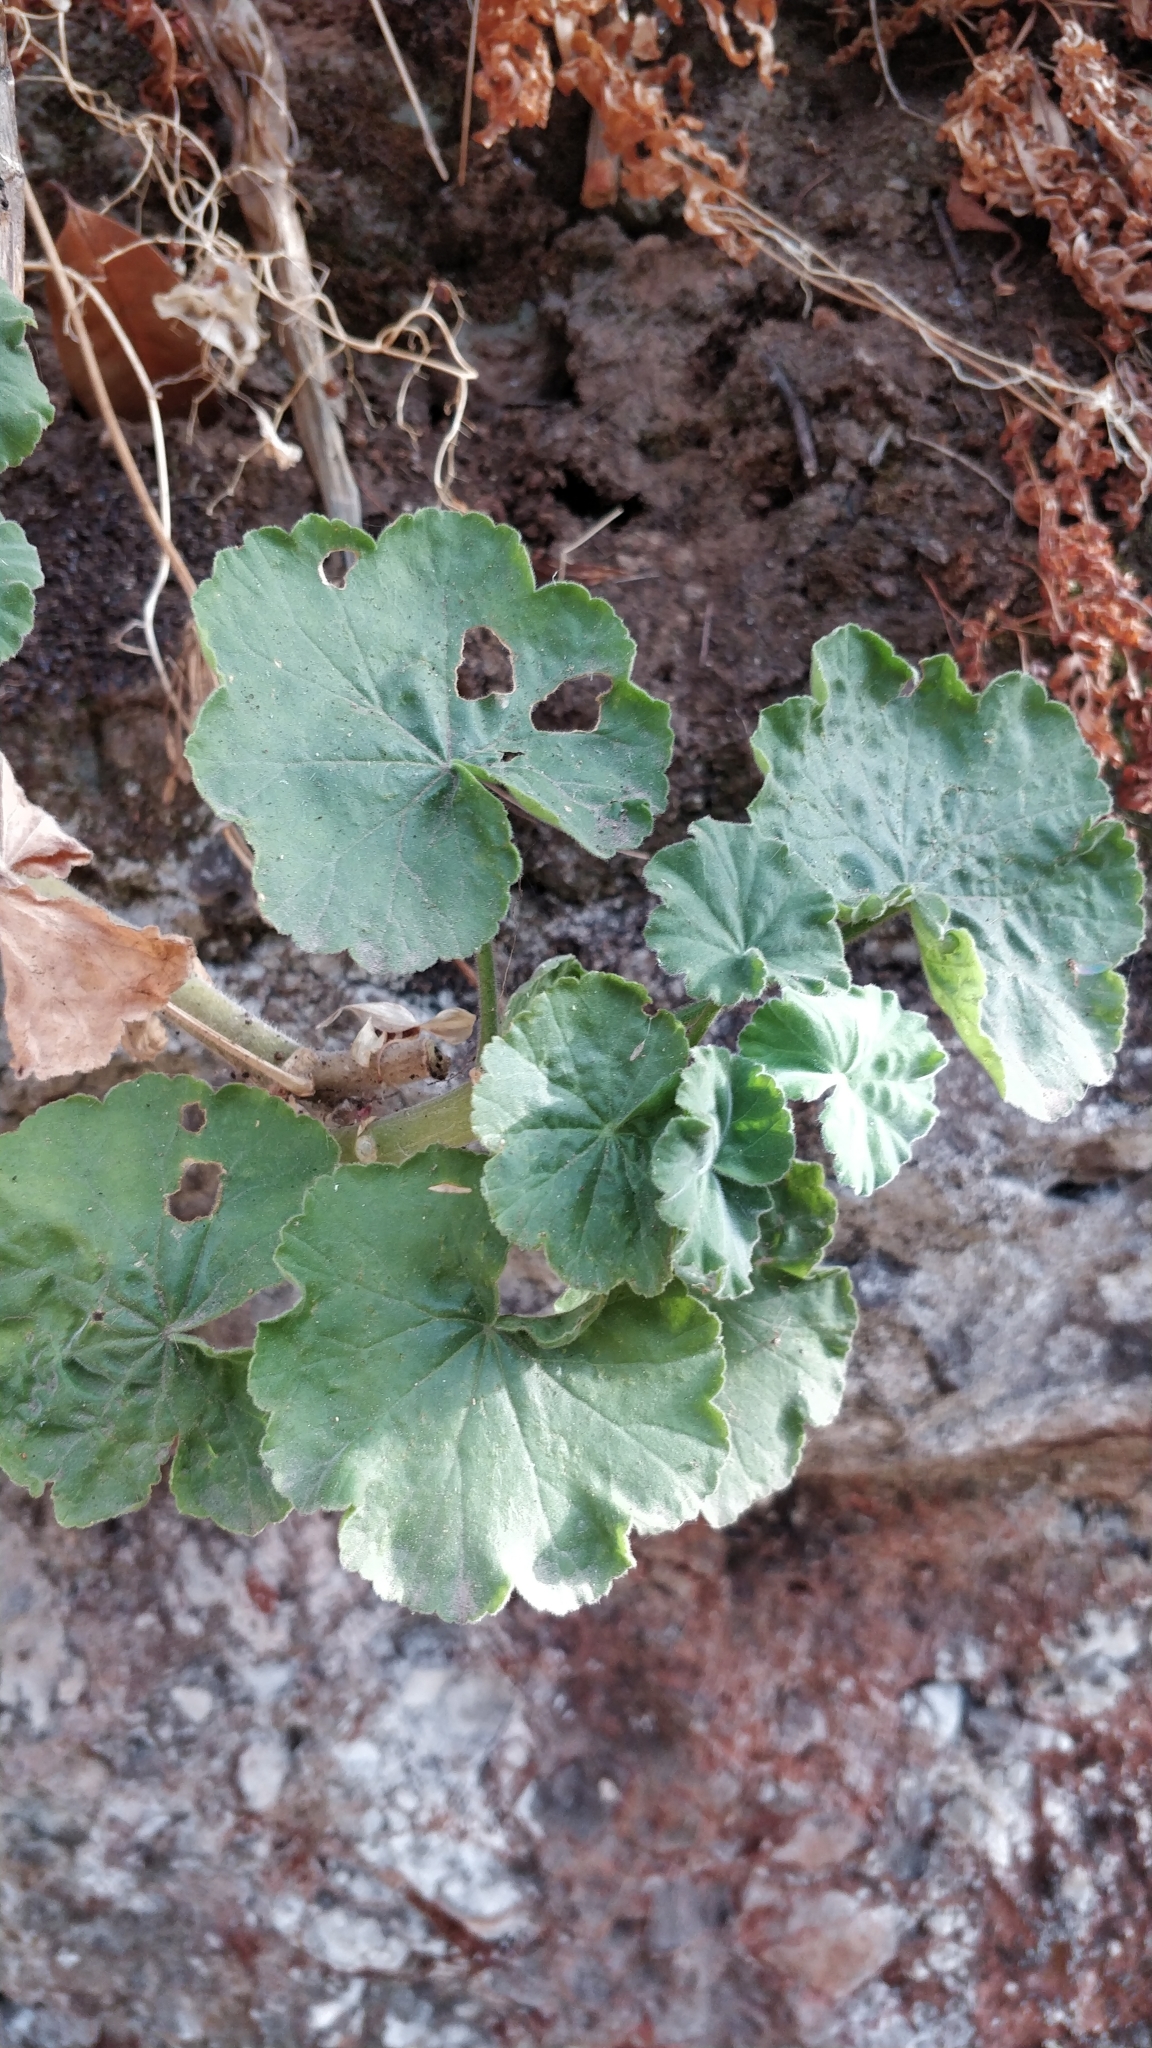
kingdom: Plantae
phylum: Tracheophyta
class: Magnoliopsida
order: Geraniales
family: Geraniaceae
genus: Pelargonium
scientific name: Pelargonium hybridum
